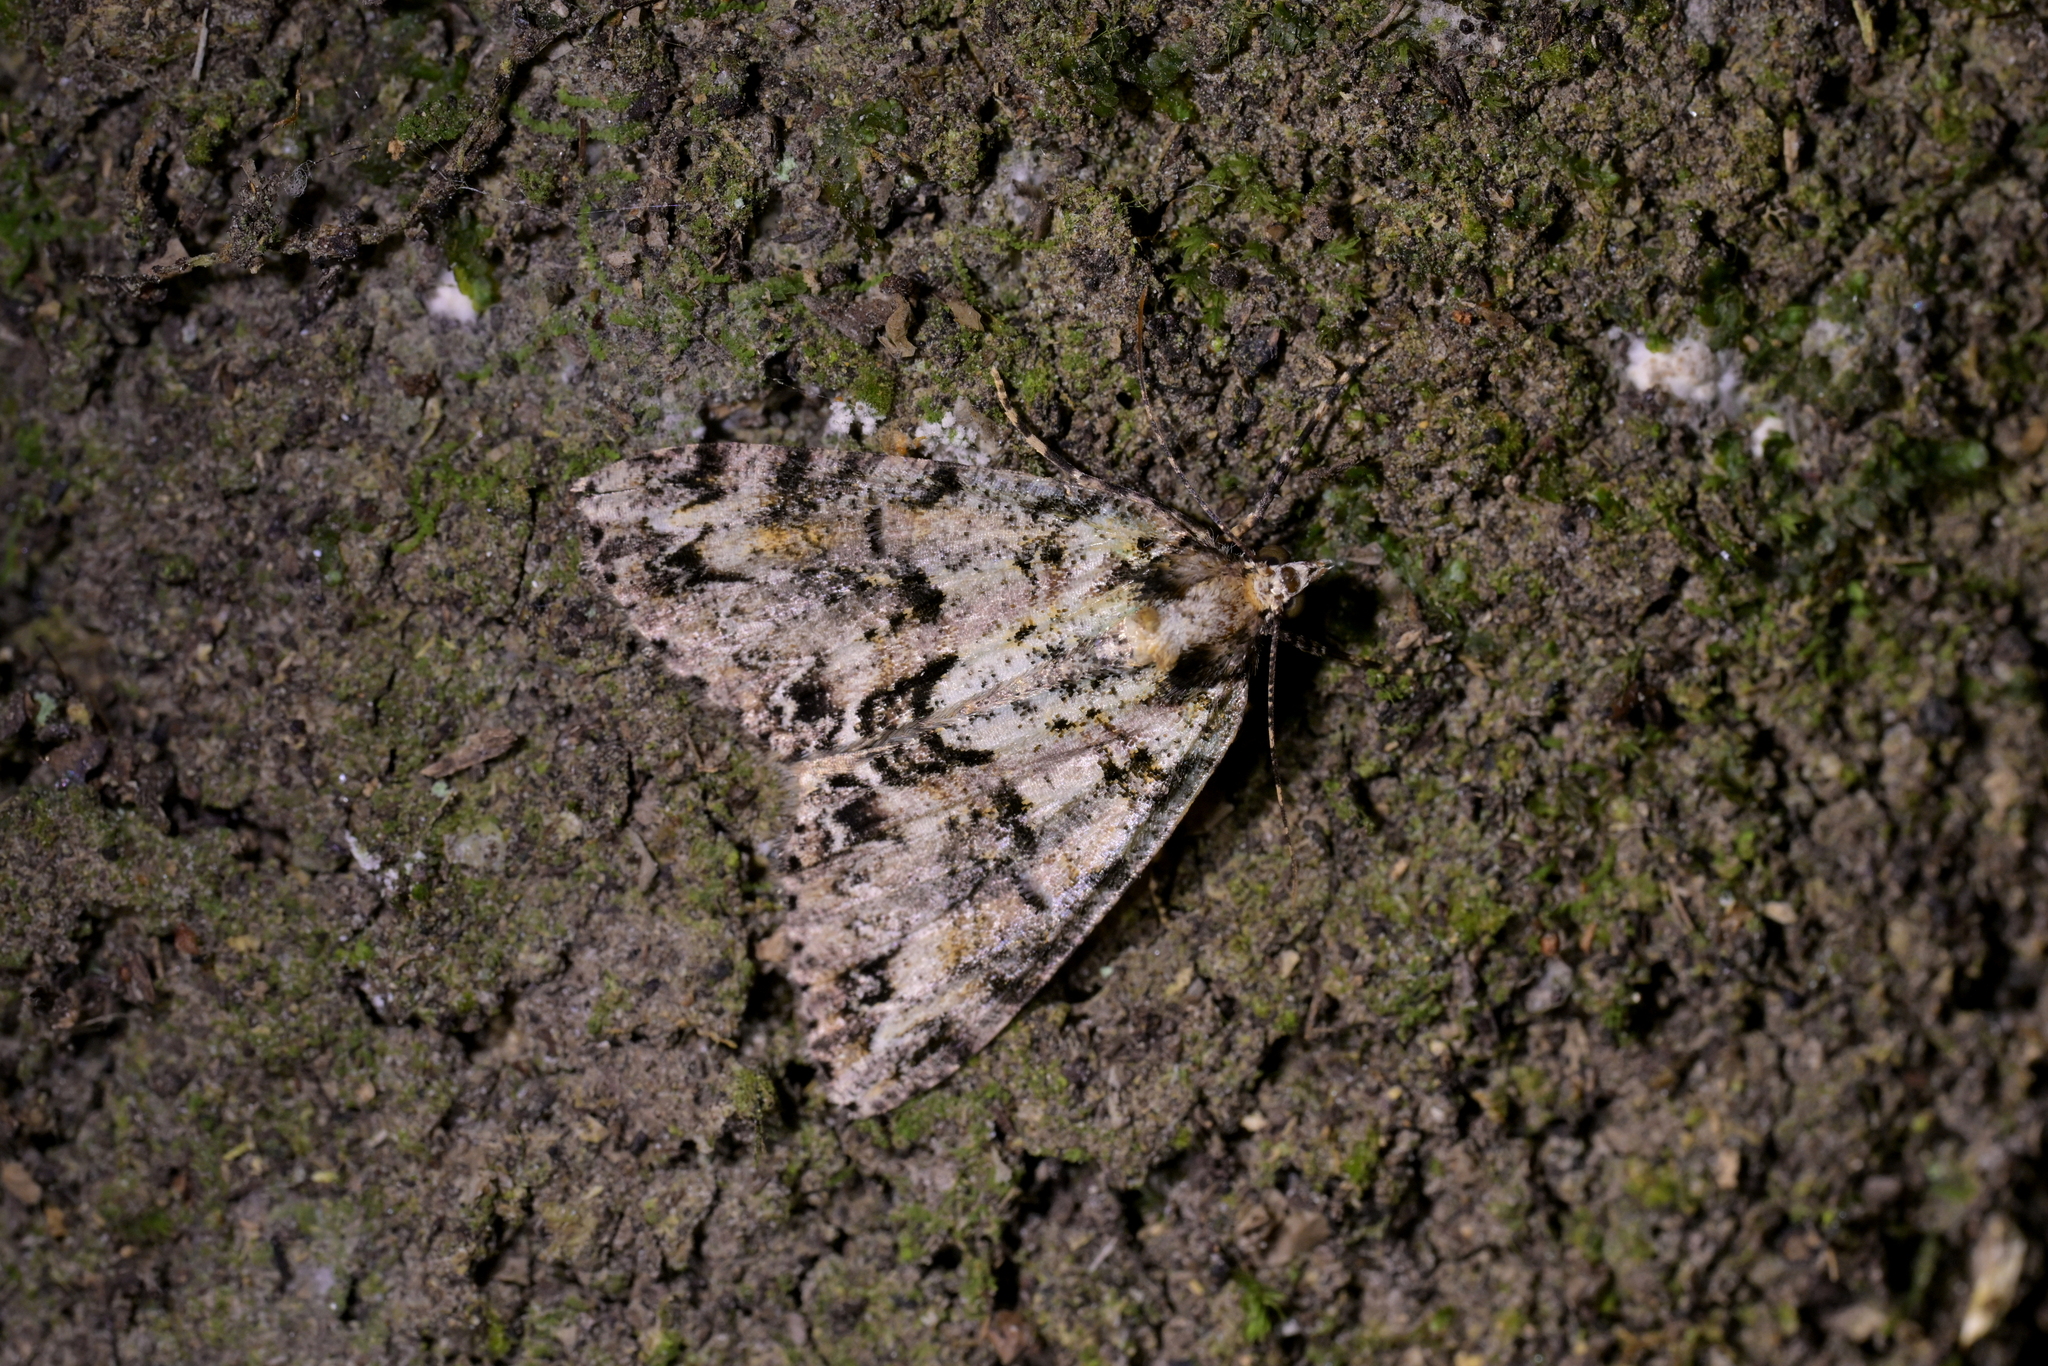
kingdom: Animalia
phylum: Arthropoda
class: Insecta
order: Lepidoptera
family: Geometridae
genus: Pseudocoremia
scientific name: Pseudocoremia suavis
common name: Common forest looper
